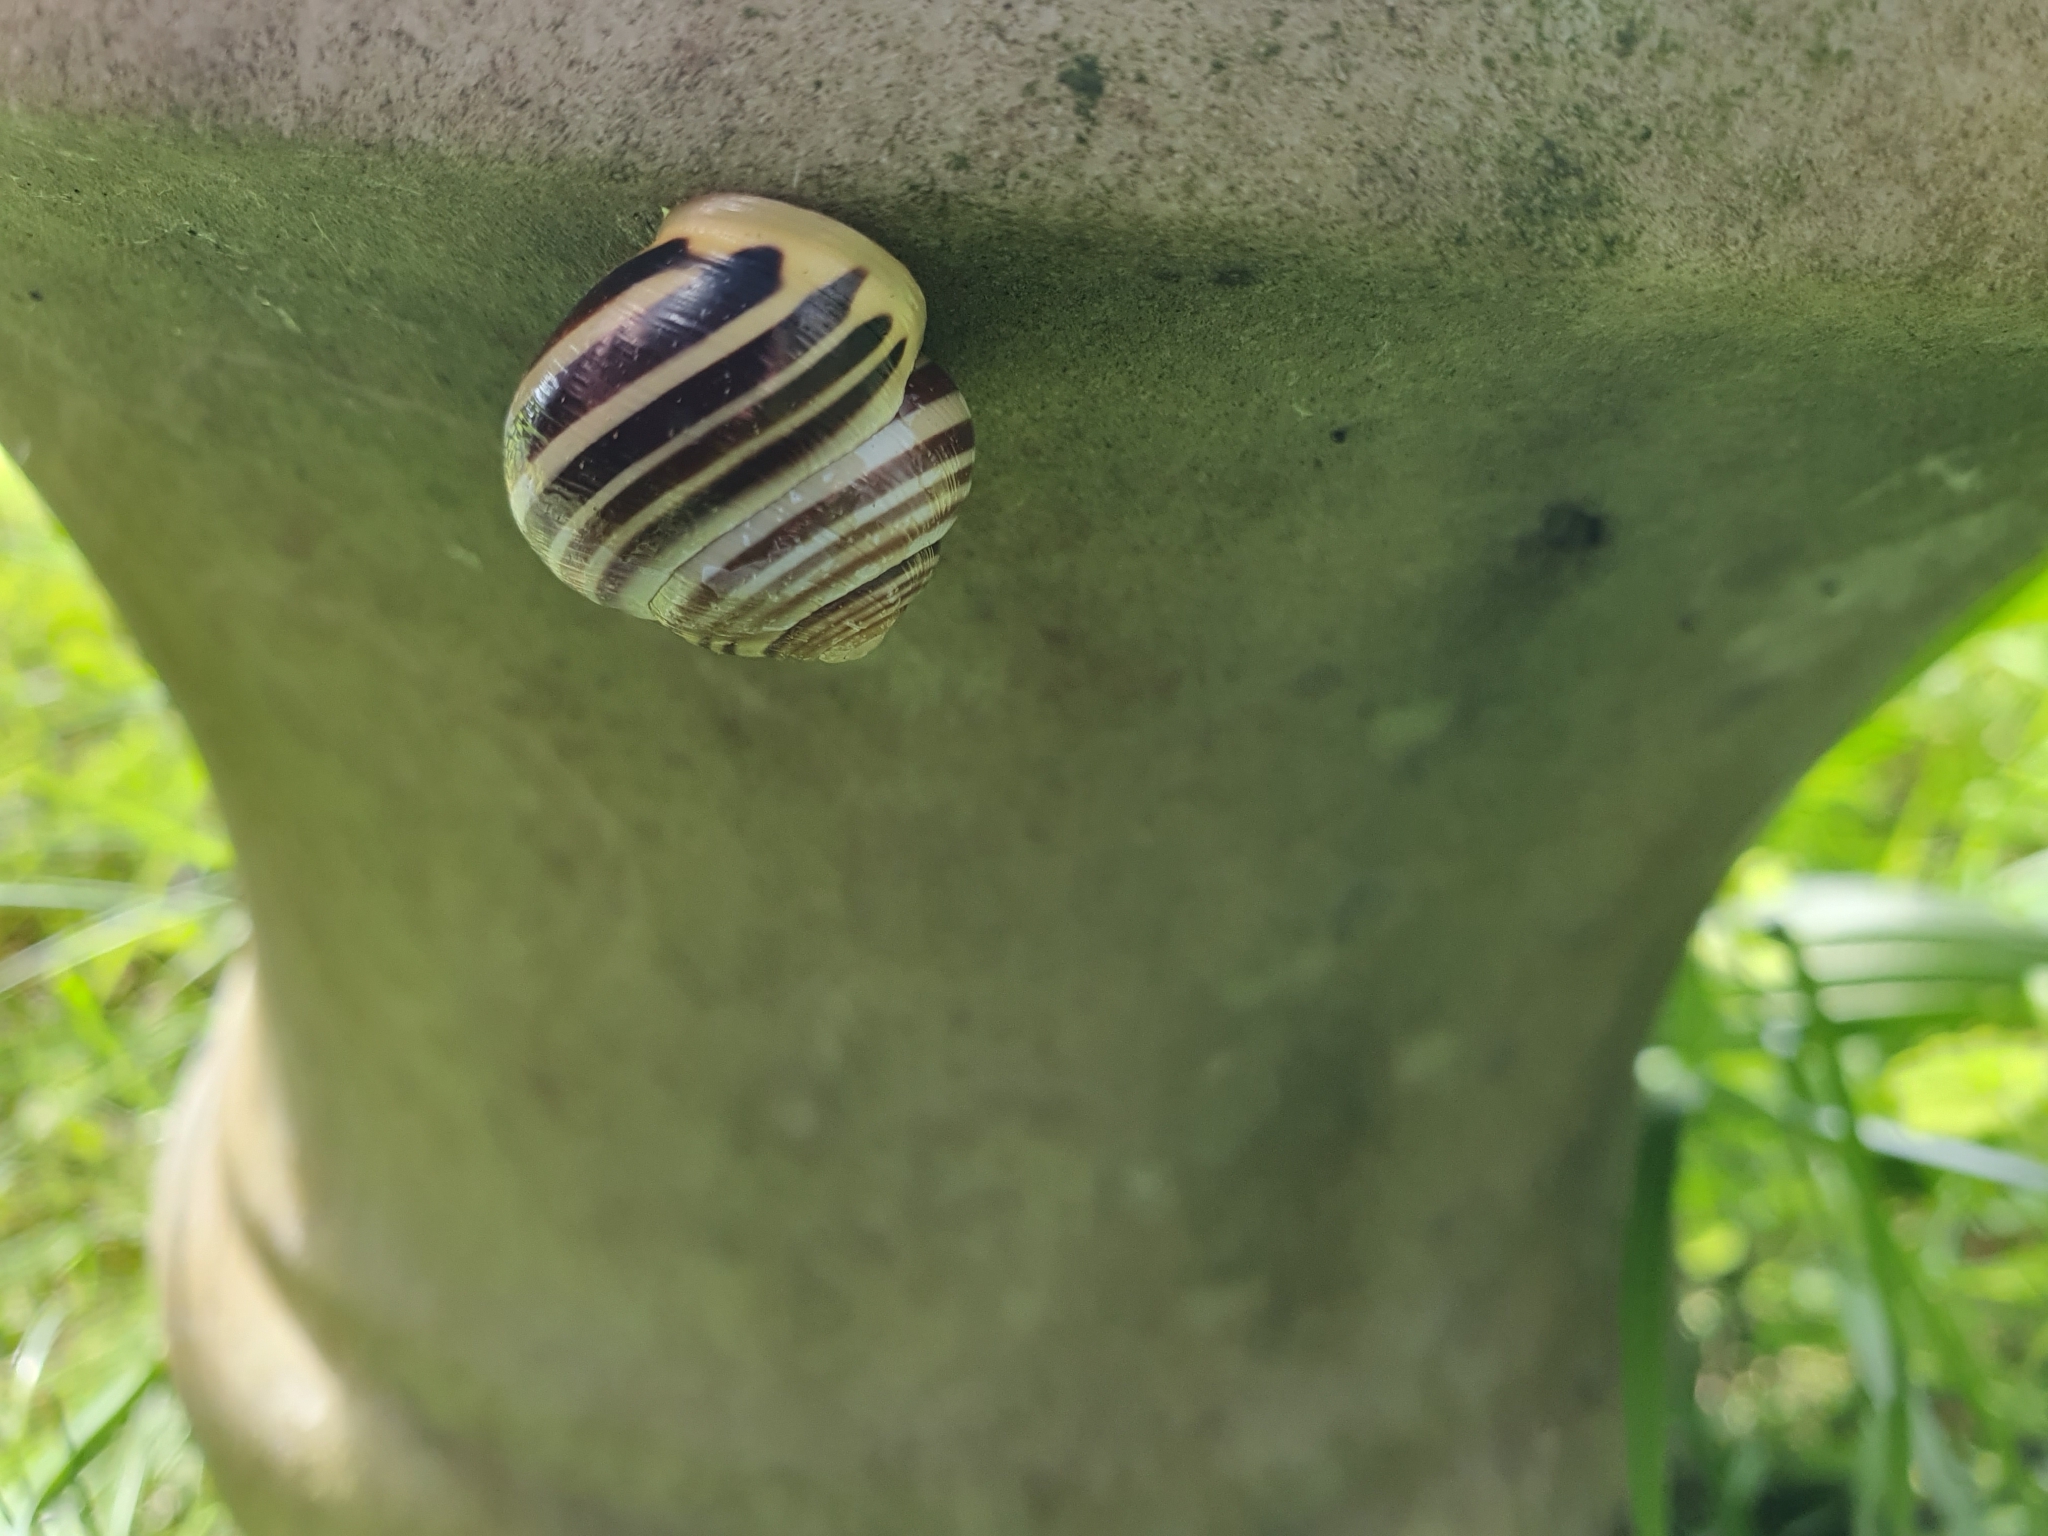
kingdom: Animalia
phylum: Mollusca
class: Gastropoda
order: Stylommatophora
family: Helicidae
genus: Cepaea
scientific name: Cepaea hortensis
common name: White-lip gardensnail
